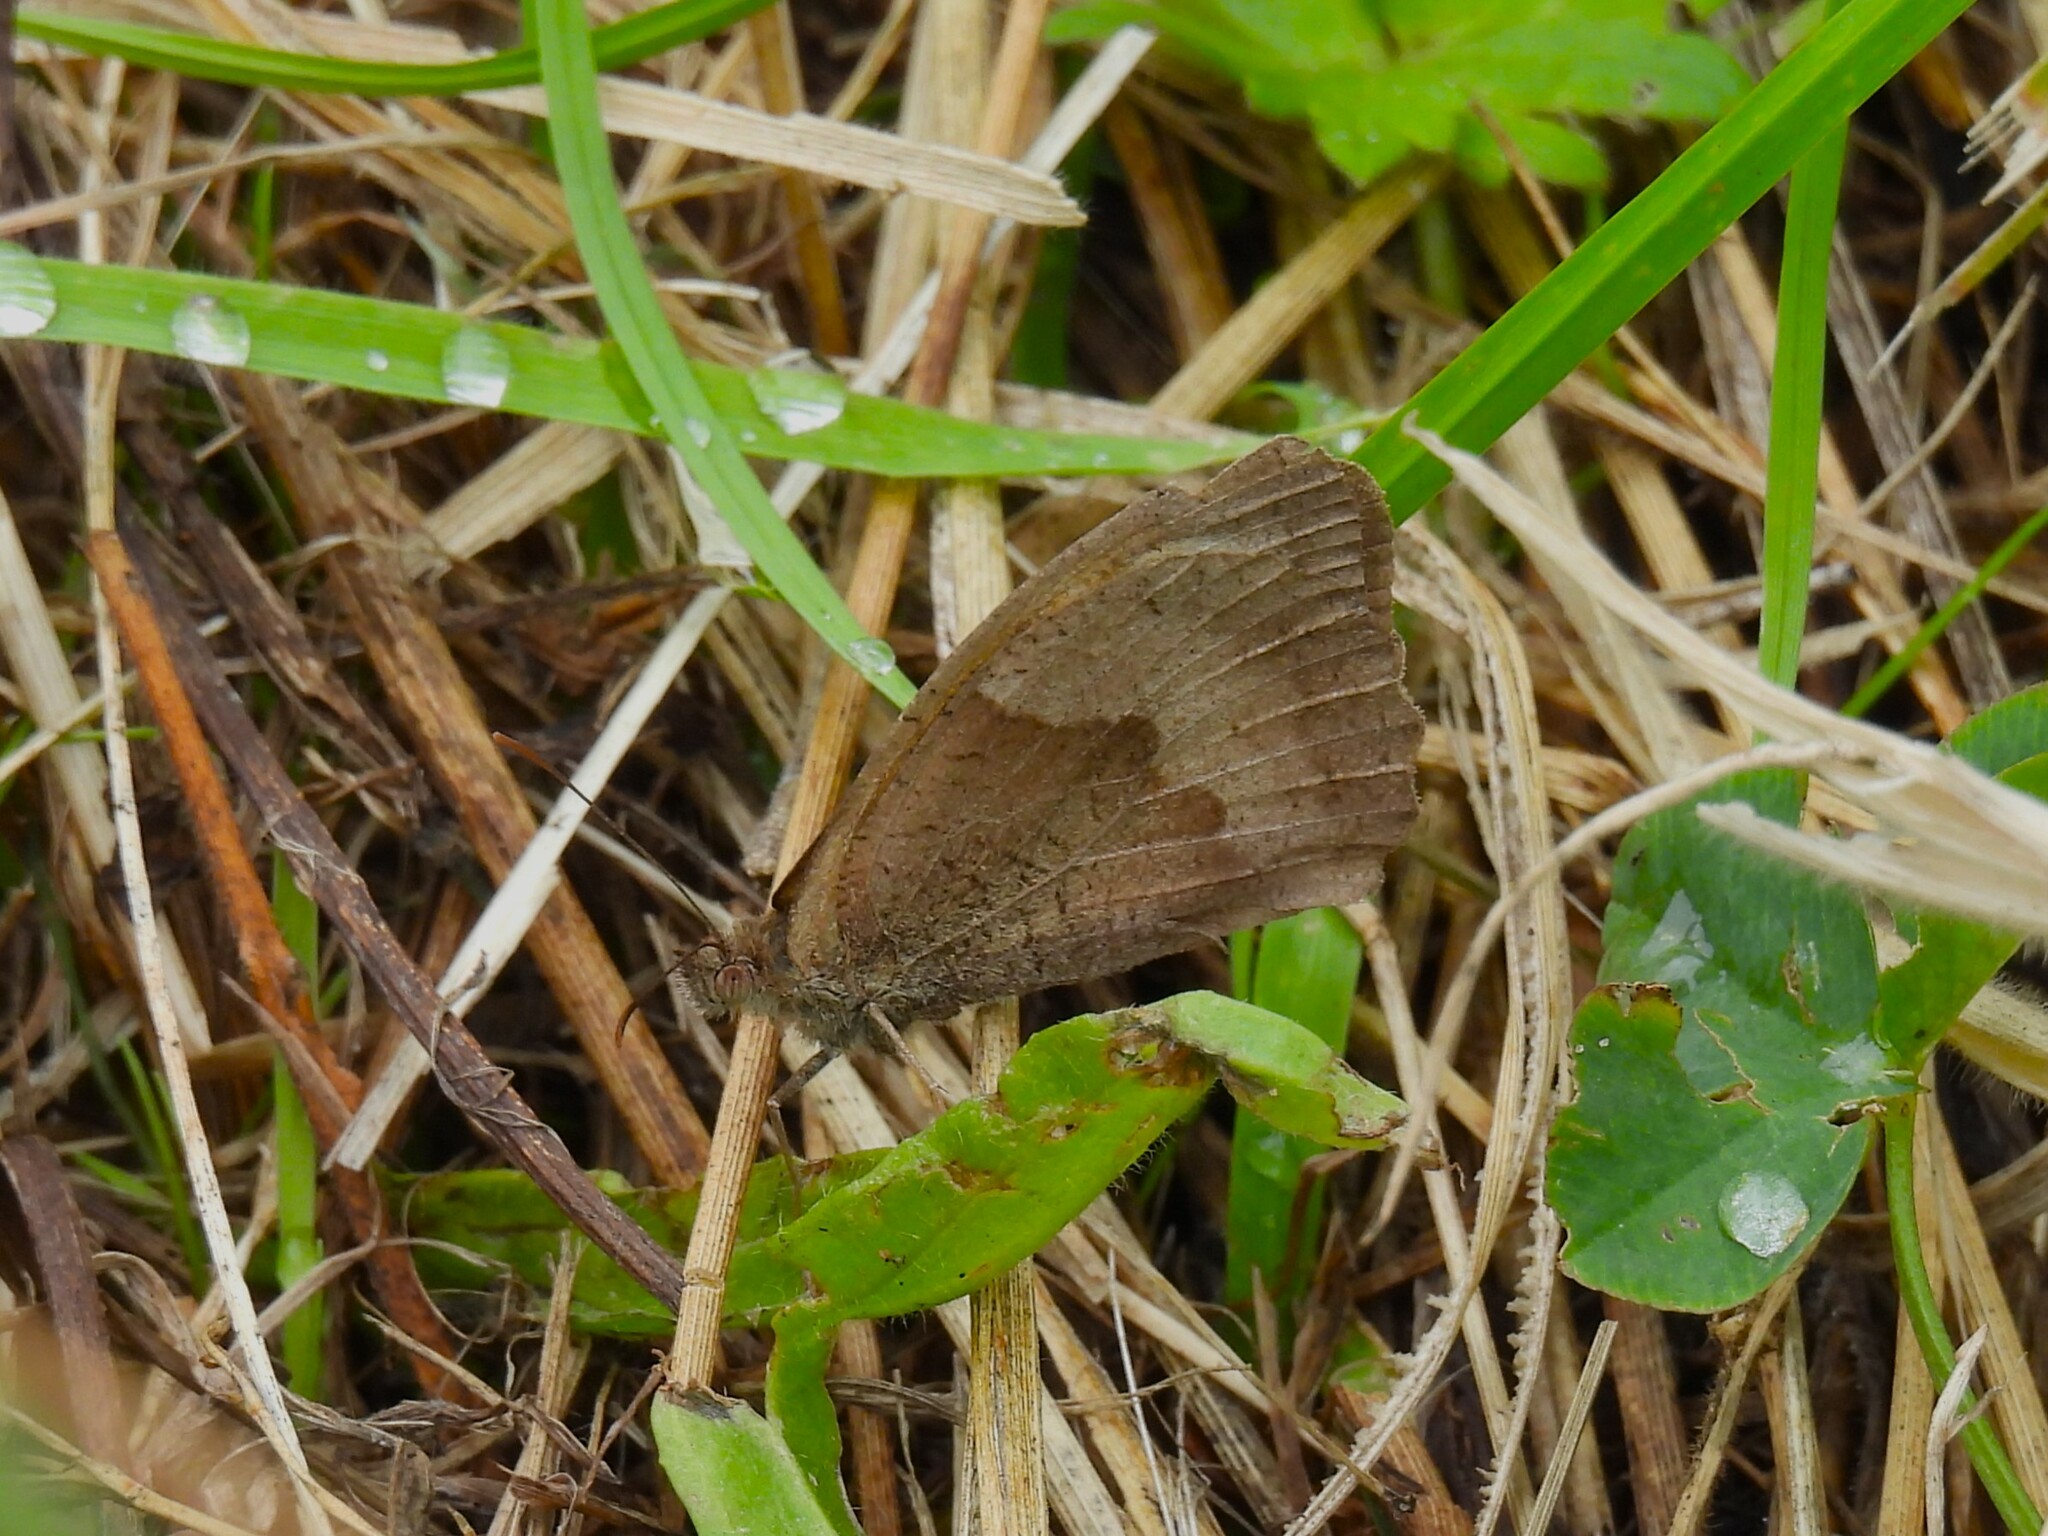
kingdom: Animalia
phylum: Arthropoda
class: Insecta
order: Lepidoptera
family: Nymphalidae
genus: Maniola
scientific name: Maniola jurtina
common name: Meadow brown
